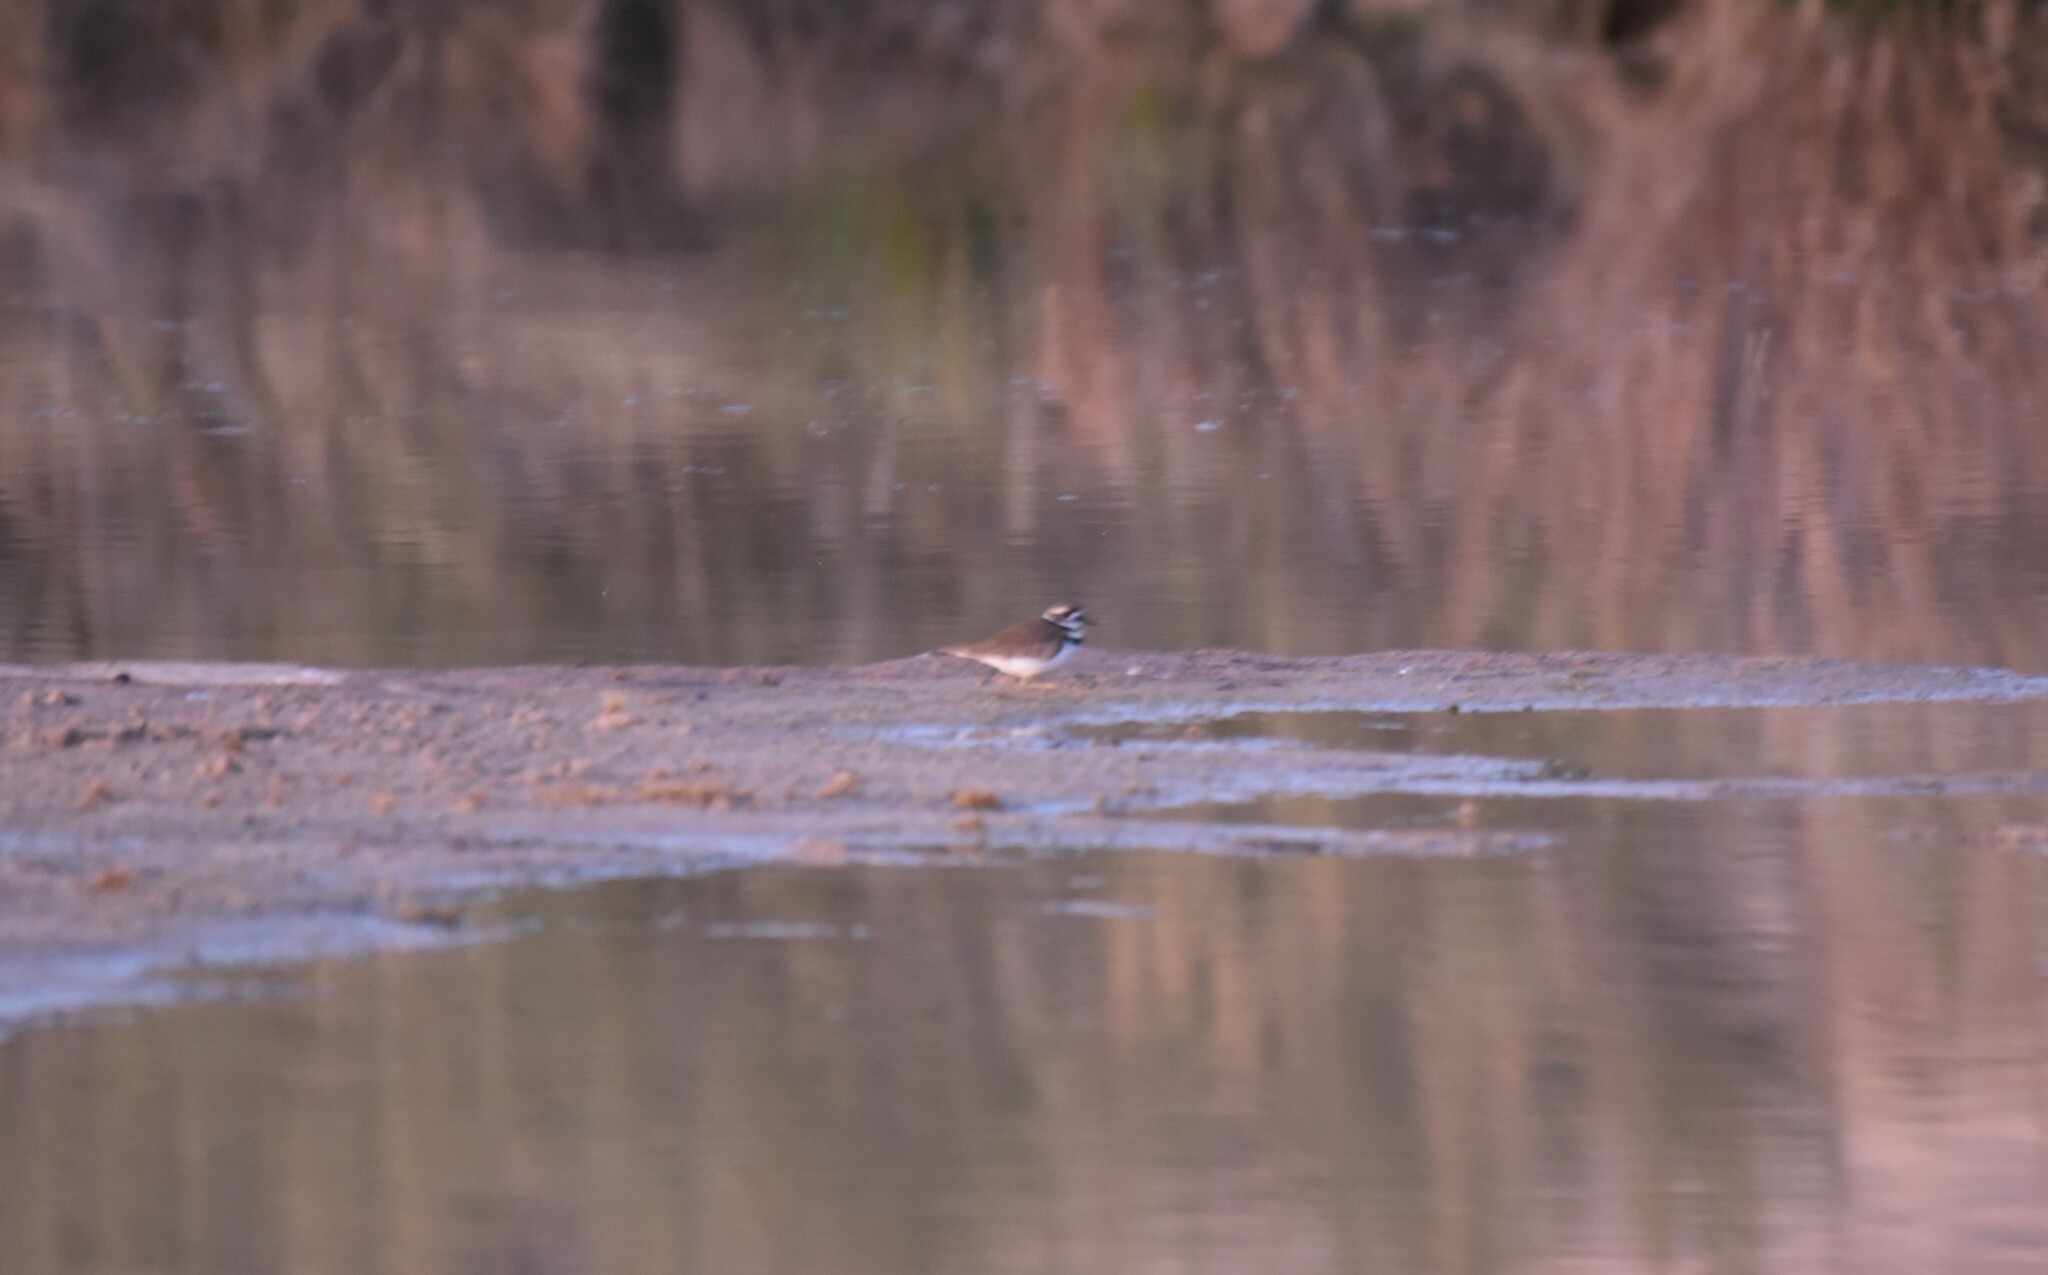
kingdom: Animalia
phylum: Chordata
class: Aves
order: Charadriiformes
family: Charadriidae
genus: Charadrius
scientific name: Charadrius vociferus
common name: Killdeer
